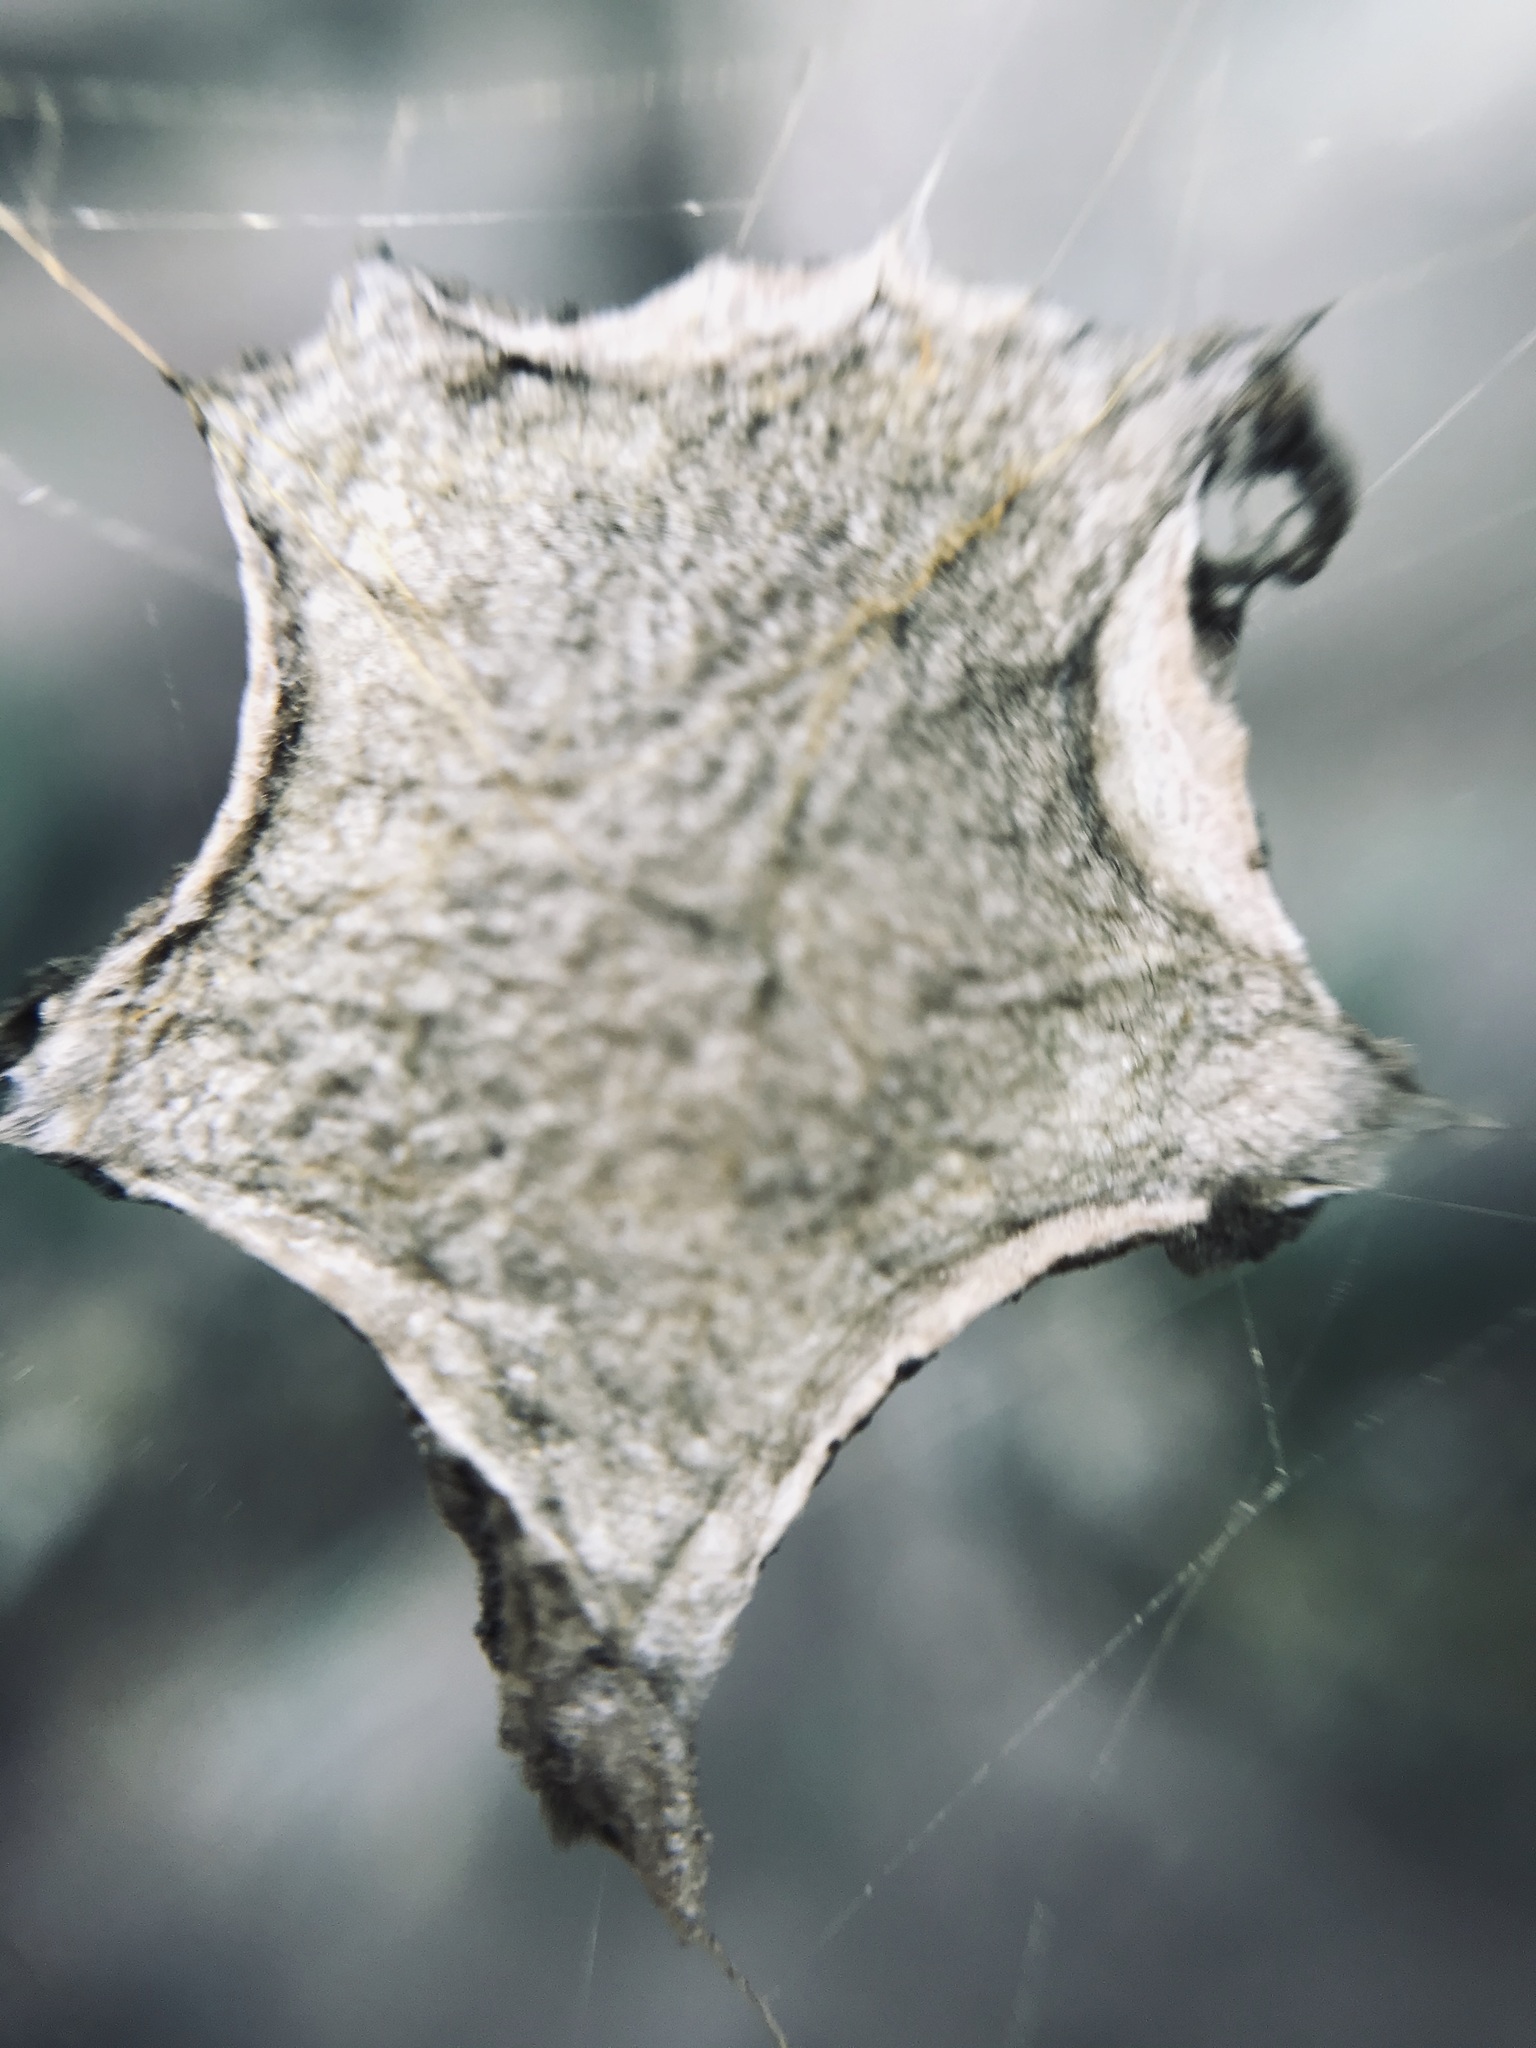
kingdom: Animalia
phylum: Arthropoda
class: Arachnida
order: Araneae
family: Araneidae
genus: Argiope
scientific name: Argiope argentata
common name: Orb weavers
